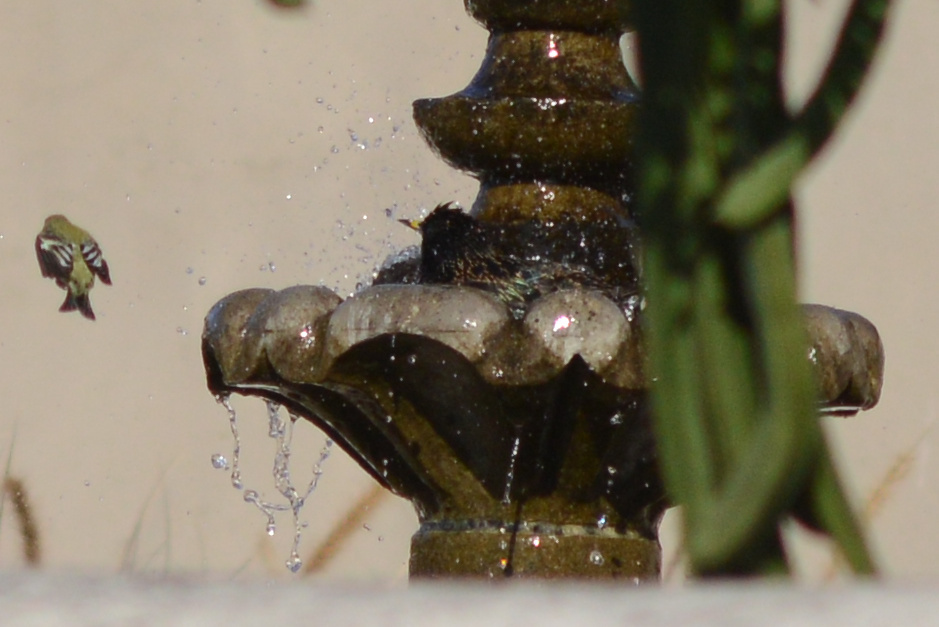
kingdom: Animalia
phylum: Chordata
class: Aves
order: Passeriformes
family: Fringillidae
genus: Spinus
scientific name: Spinus psaltria
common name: Lesser goldfinch
